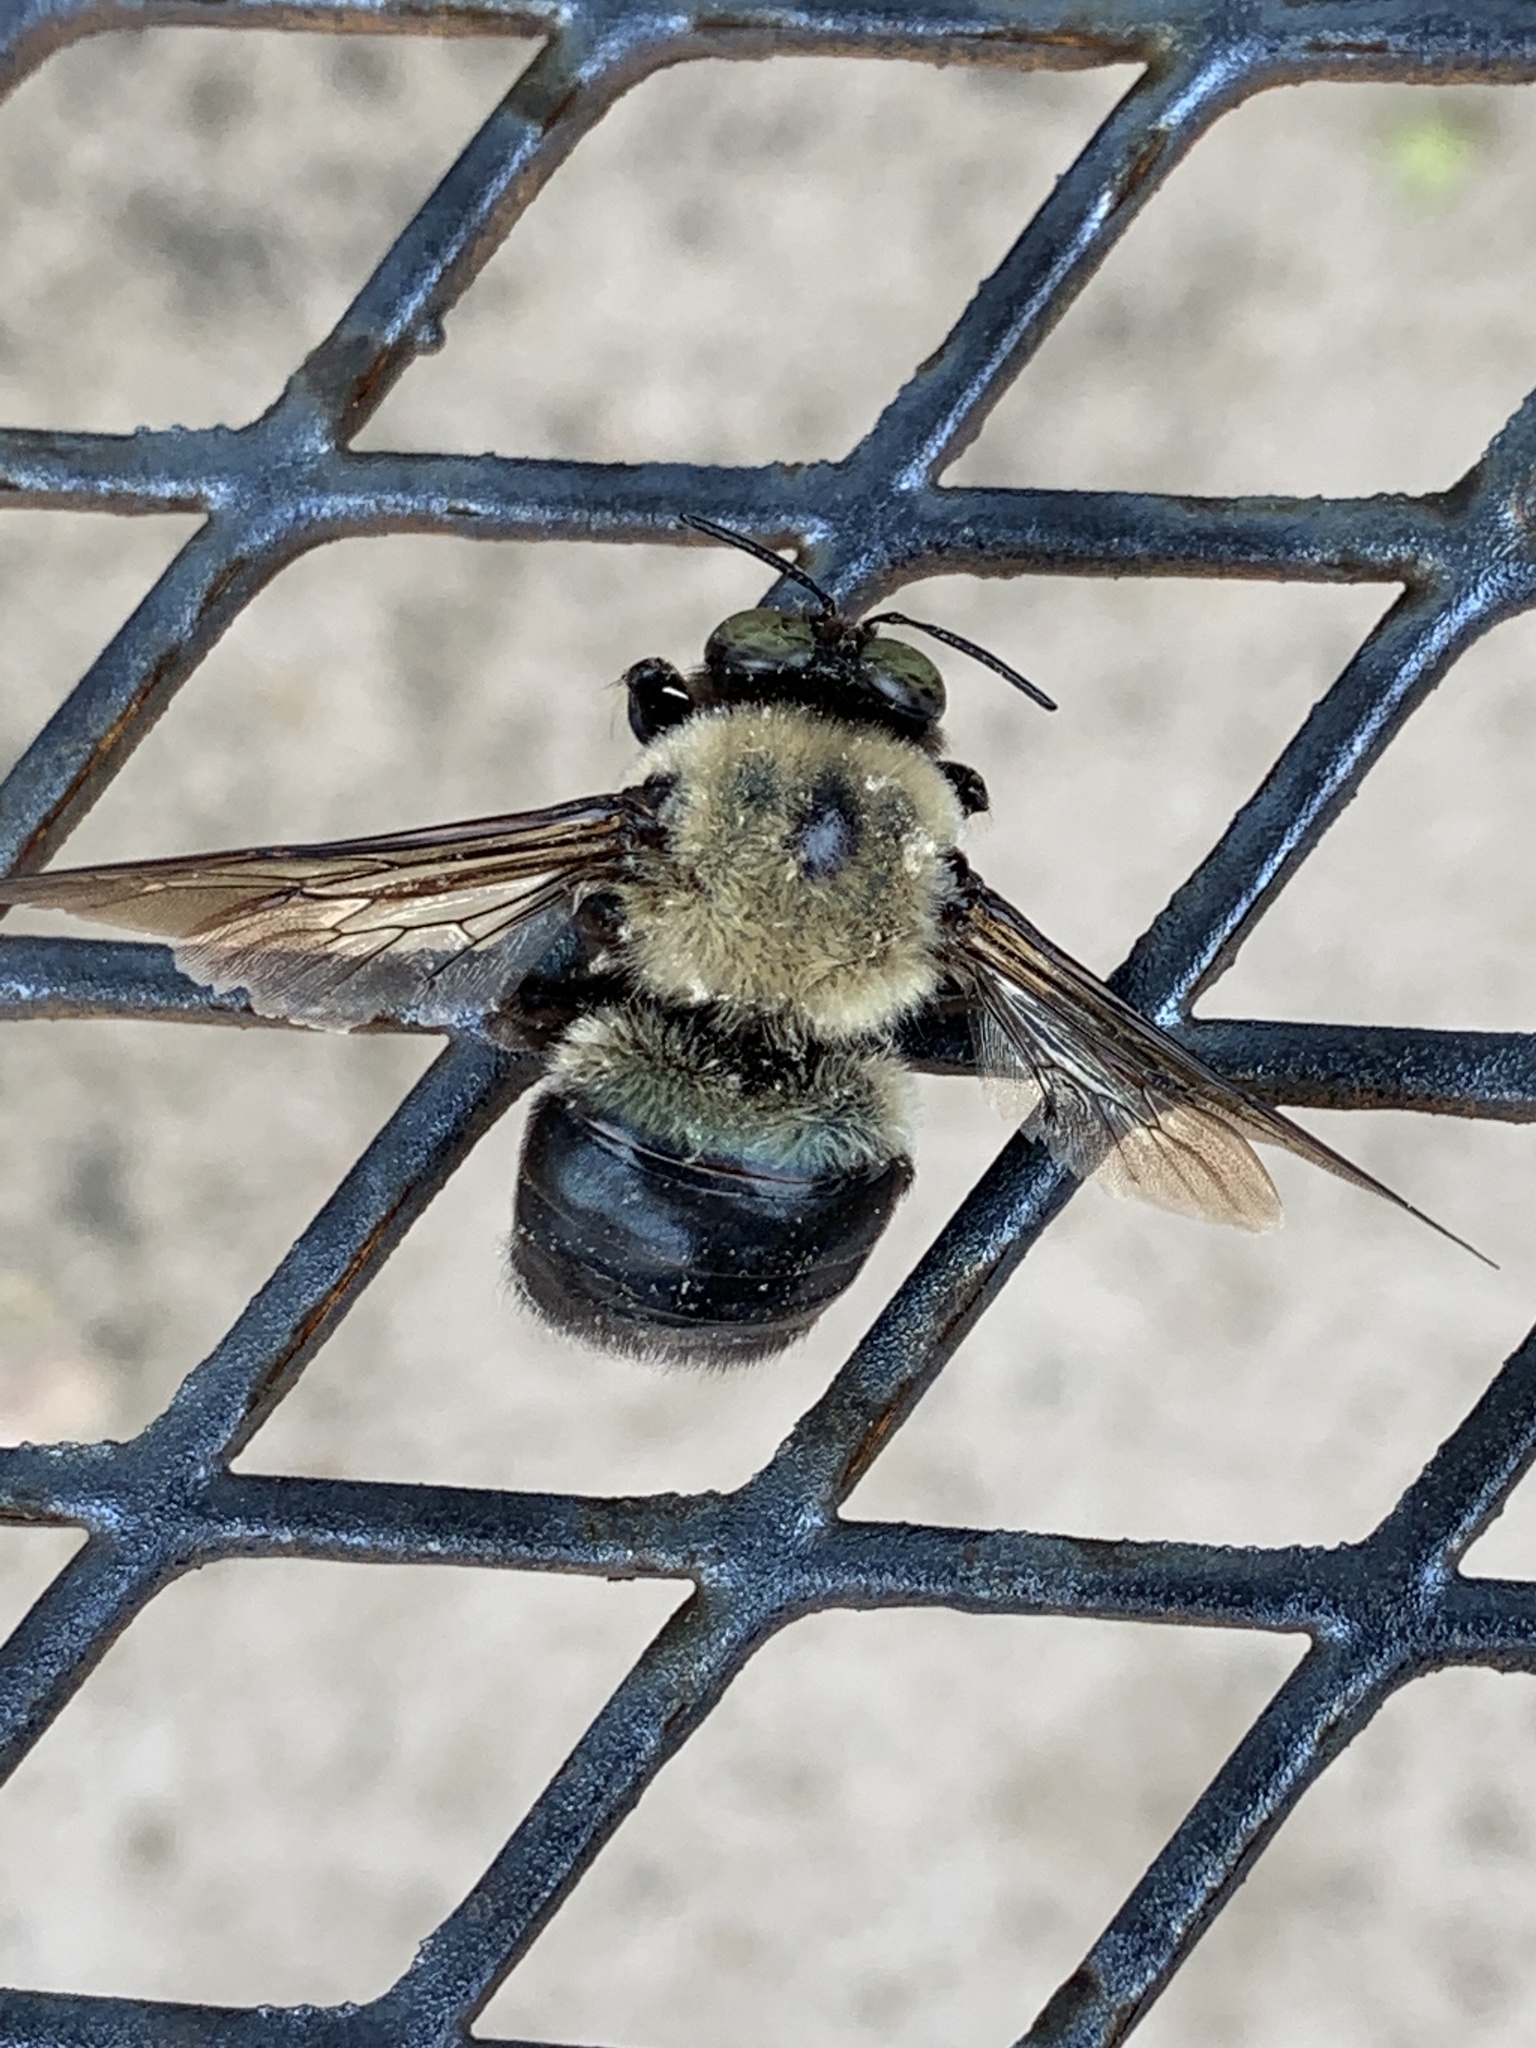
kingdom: Animalia
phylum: Arthropoda
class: Insecta
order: Hymenoptera
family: Apidae
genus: Xylocopa
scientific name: Xylocopa virginica
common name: Carpenter bee
